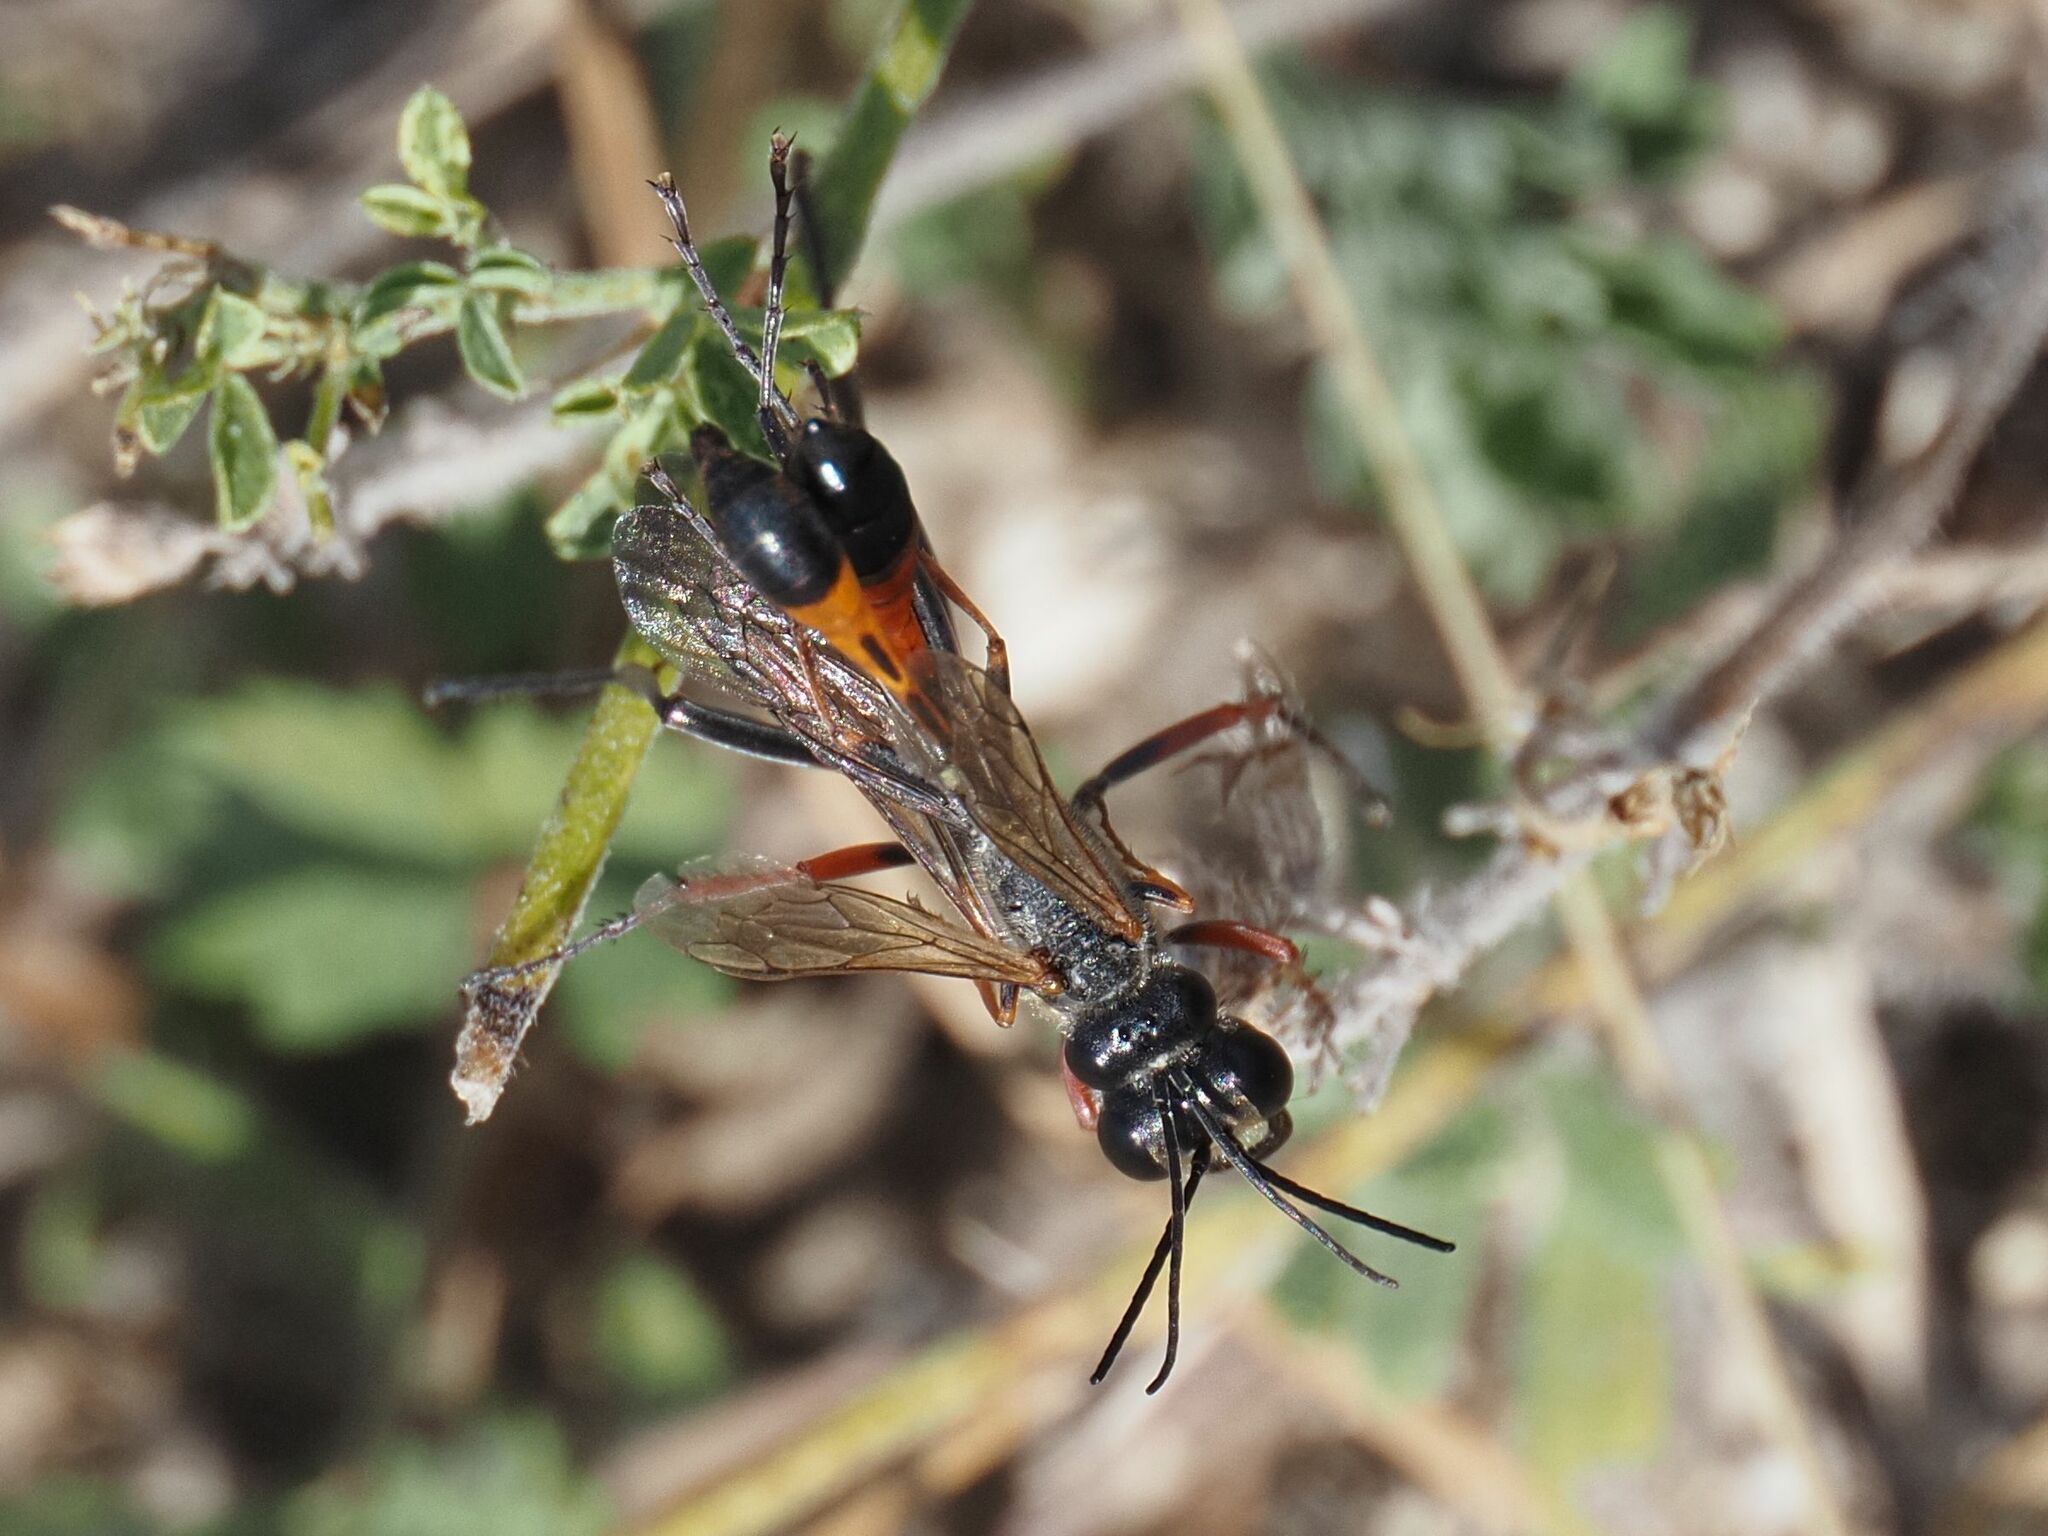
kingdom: Animalia
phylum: Arthropoda
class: Insecta
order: Hymenoptera
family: Sphecidae
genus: Ammophila
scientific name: Ammophila heydeni
